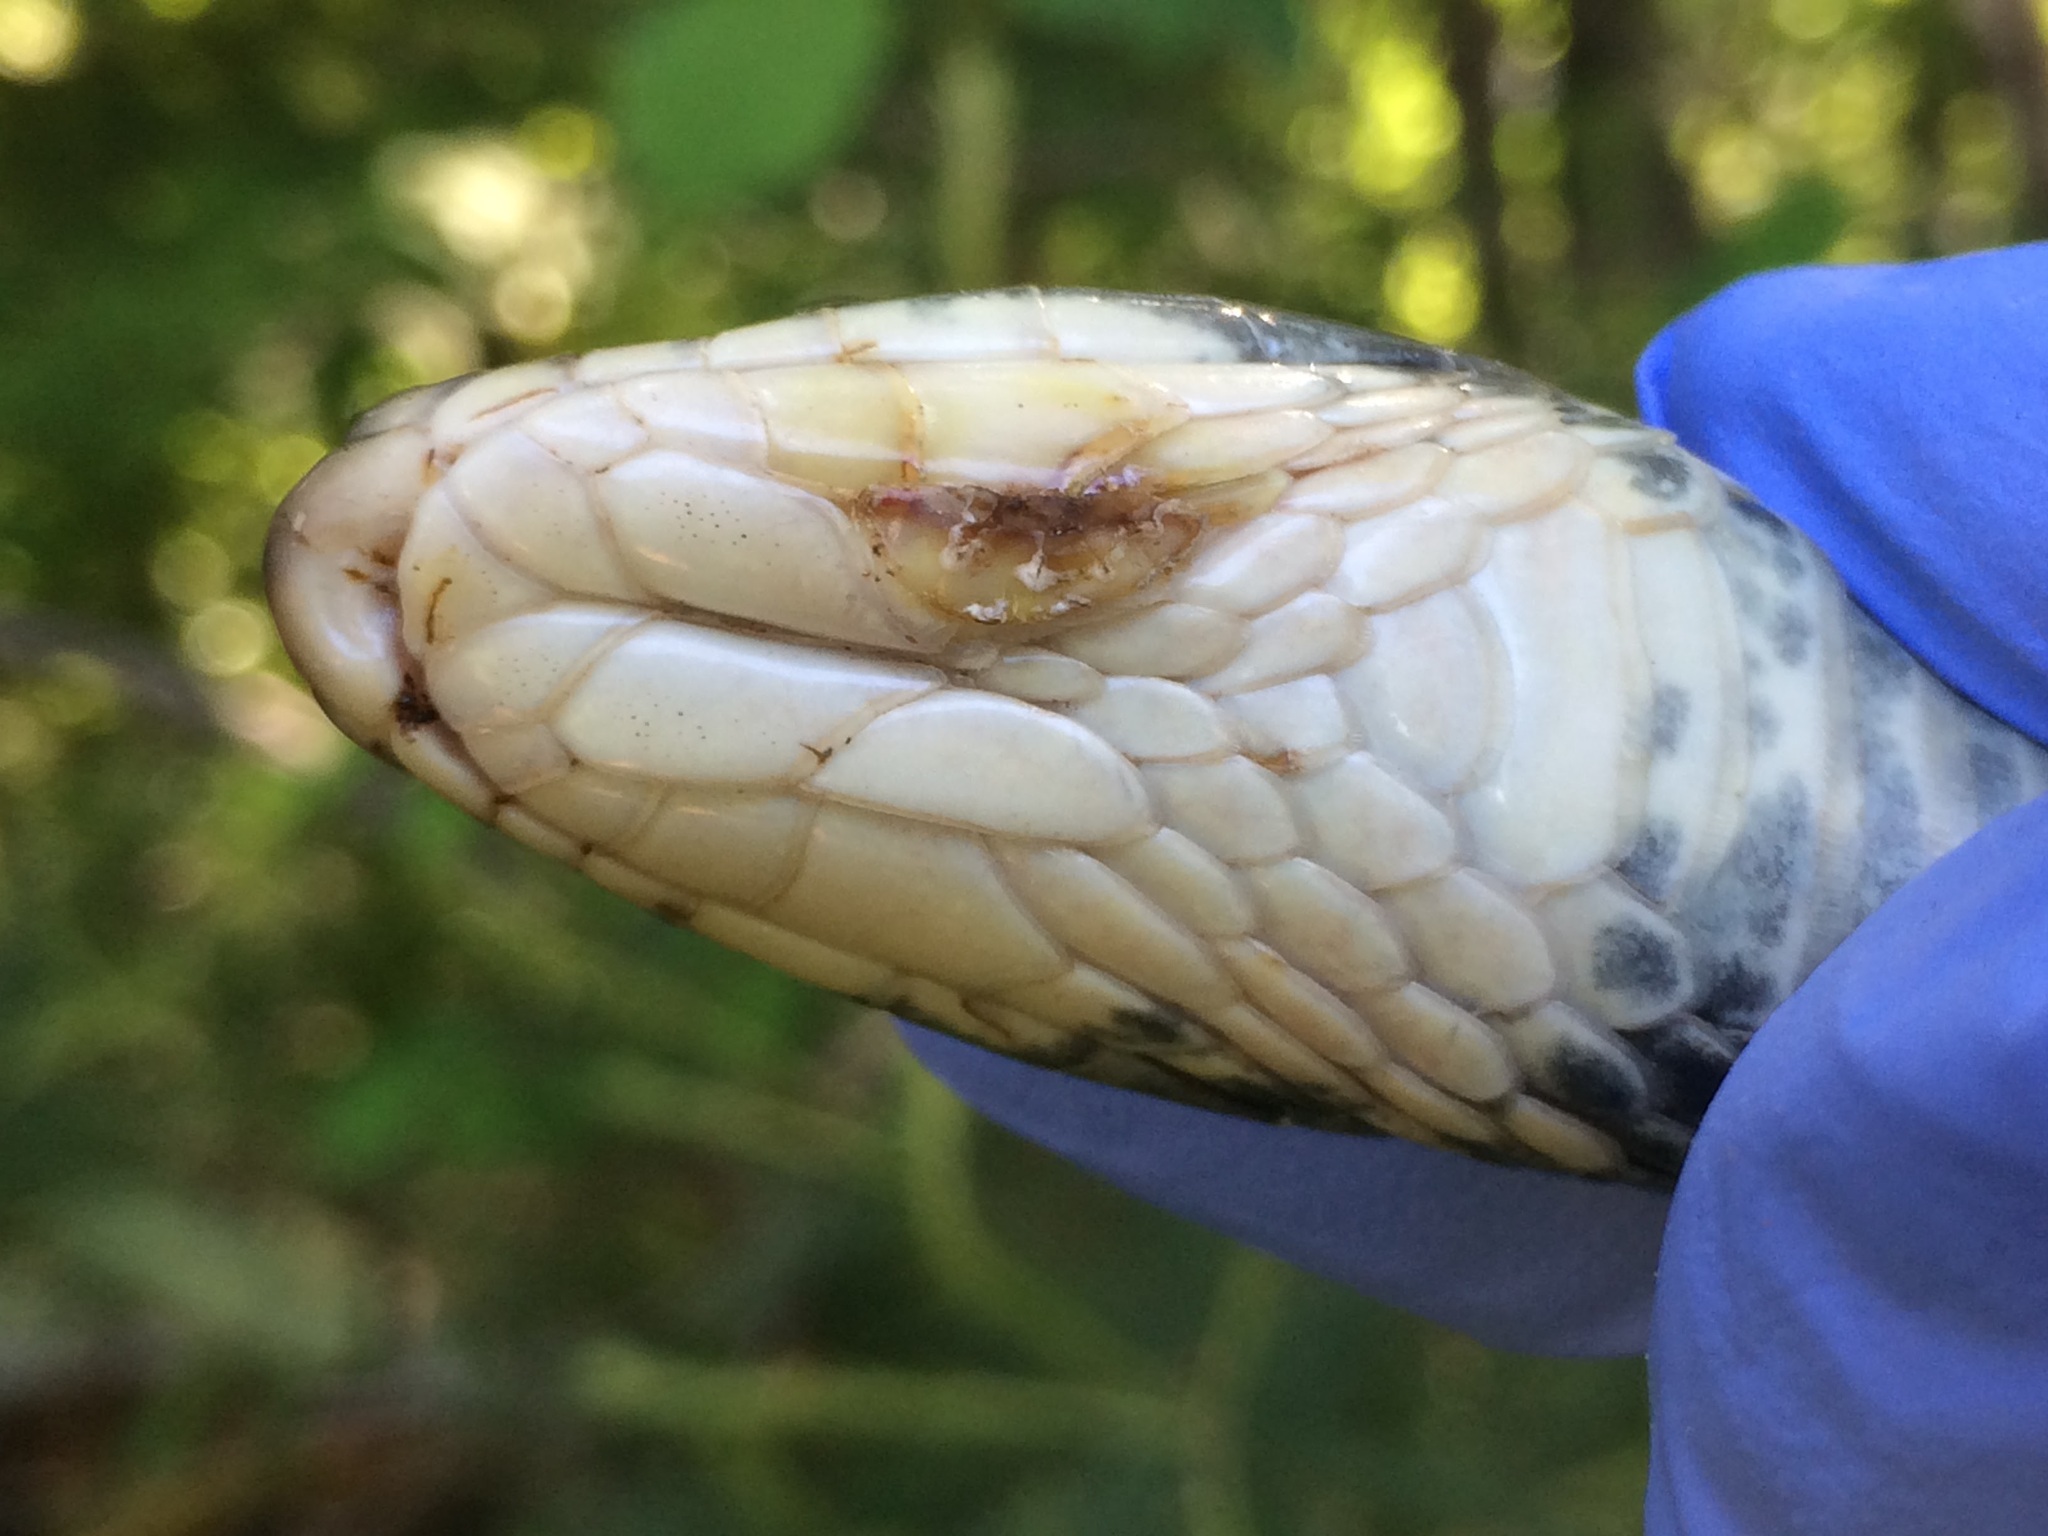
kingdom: Fungi
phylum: Ascomycota
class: Eurotiomycetes
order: Onygenales
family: Onygenaceae
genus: Ophidiomyces
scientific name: Ophidiomyces ophidiicola
